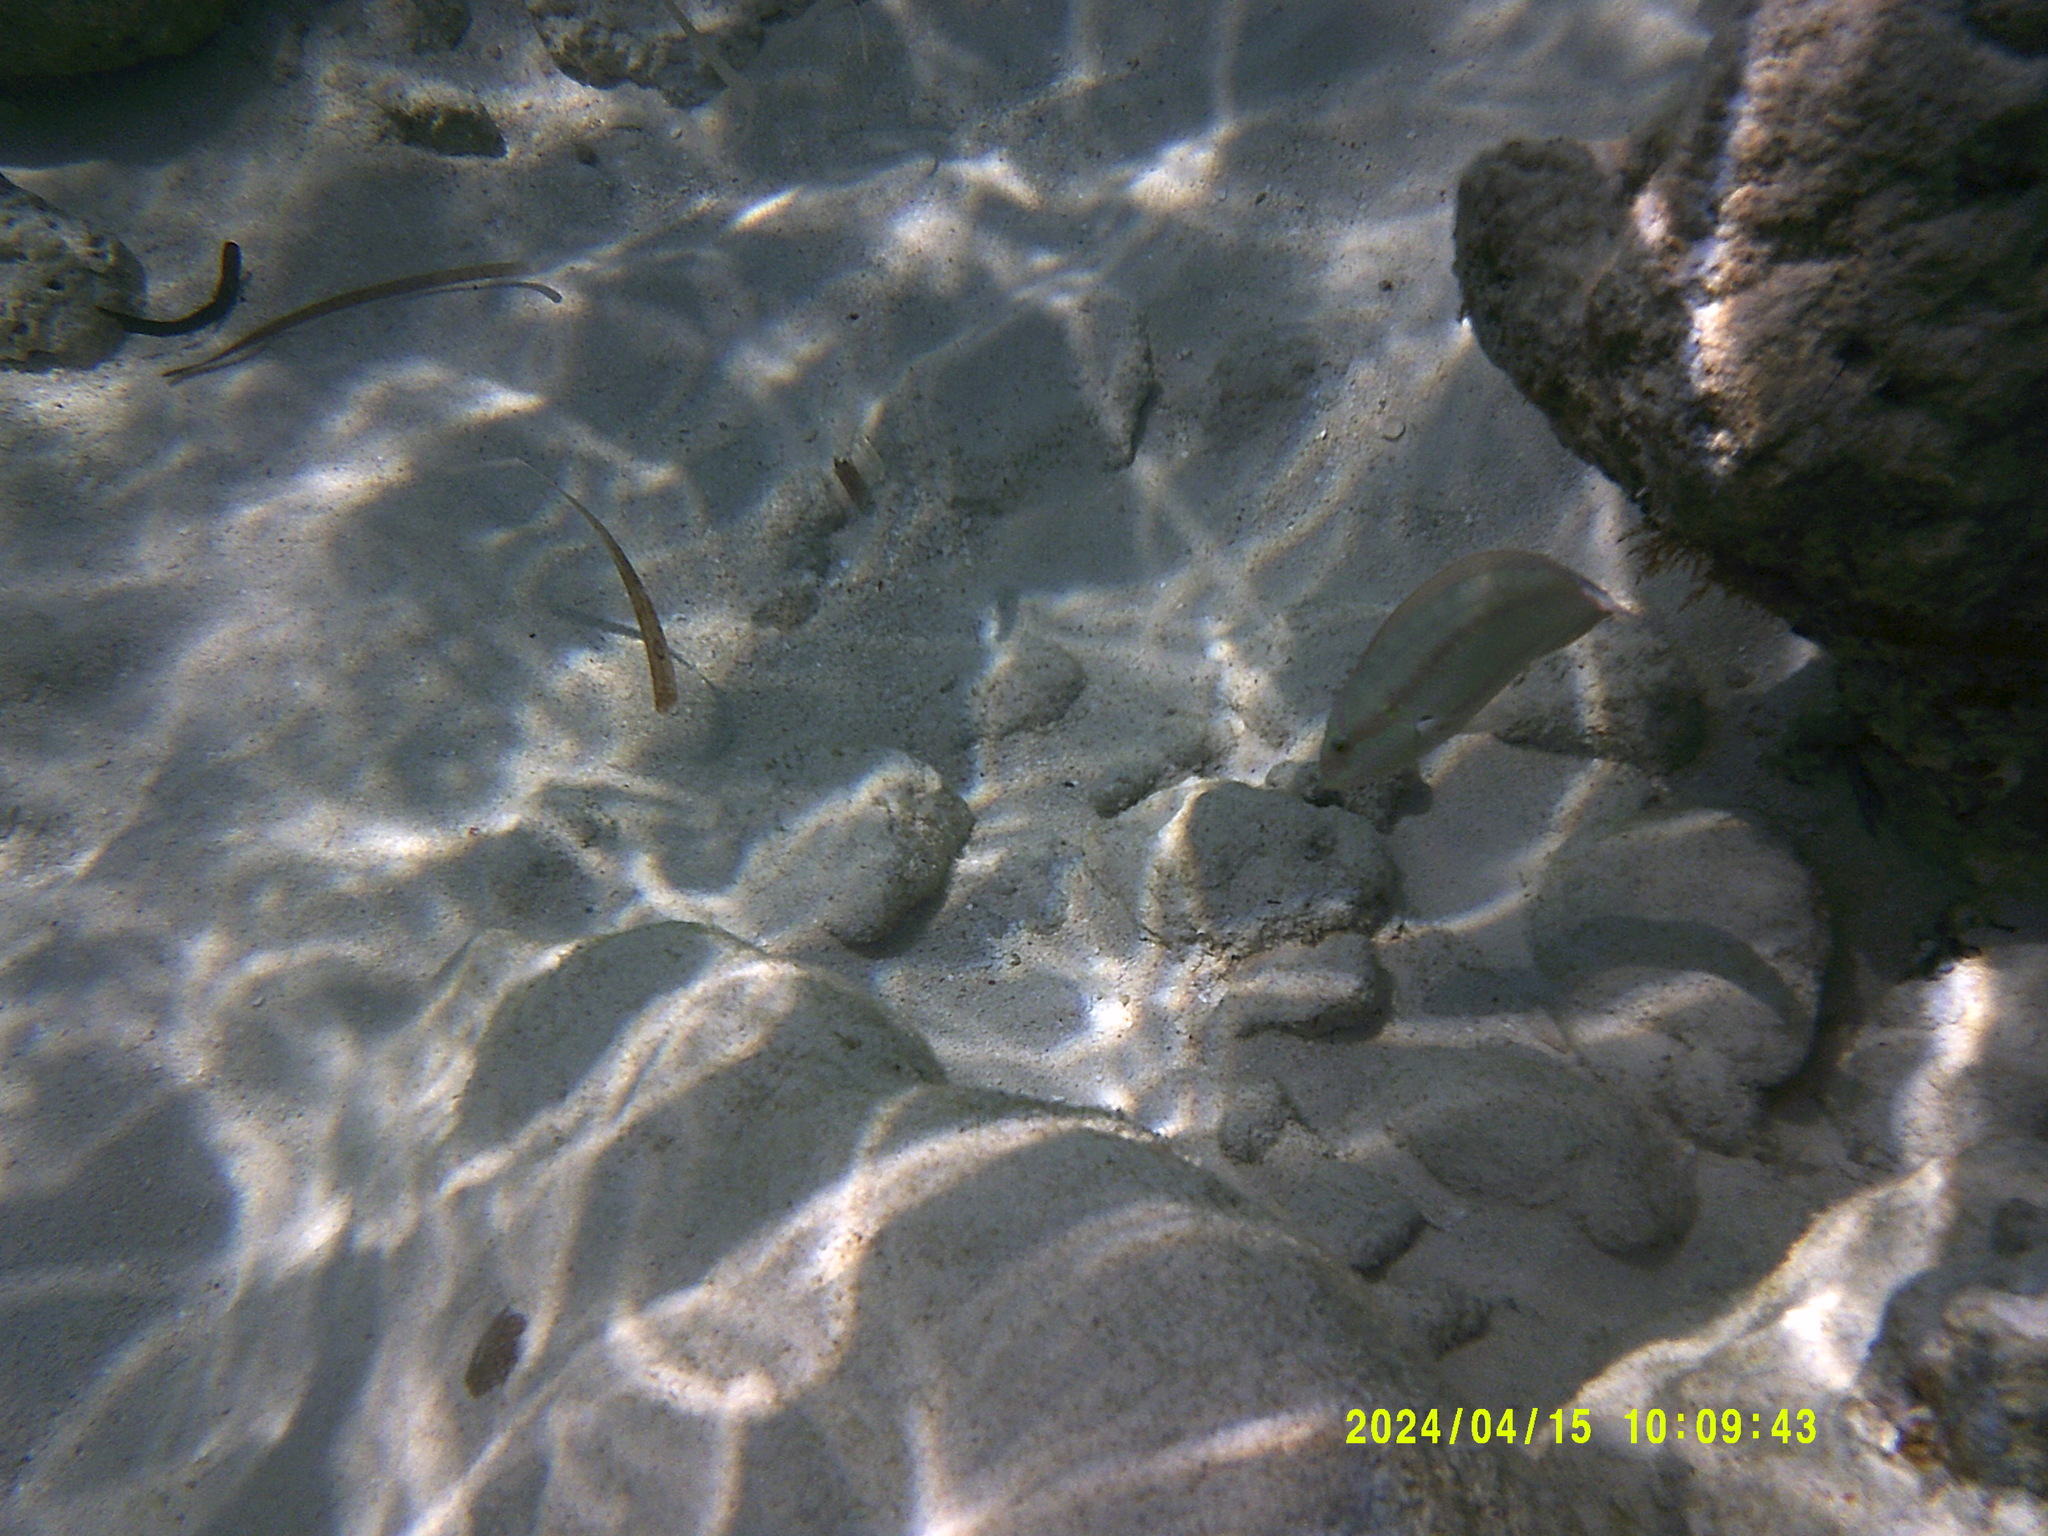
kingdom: Animalia
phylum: Chordata
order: Perciformes
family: Labridae
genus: Halichoeres
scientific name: Halichoeres bivittatus
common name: Slippery dick
